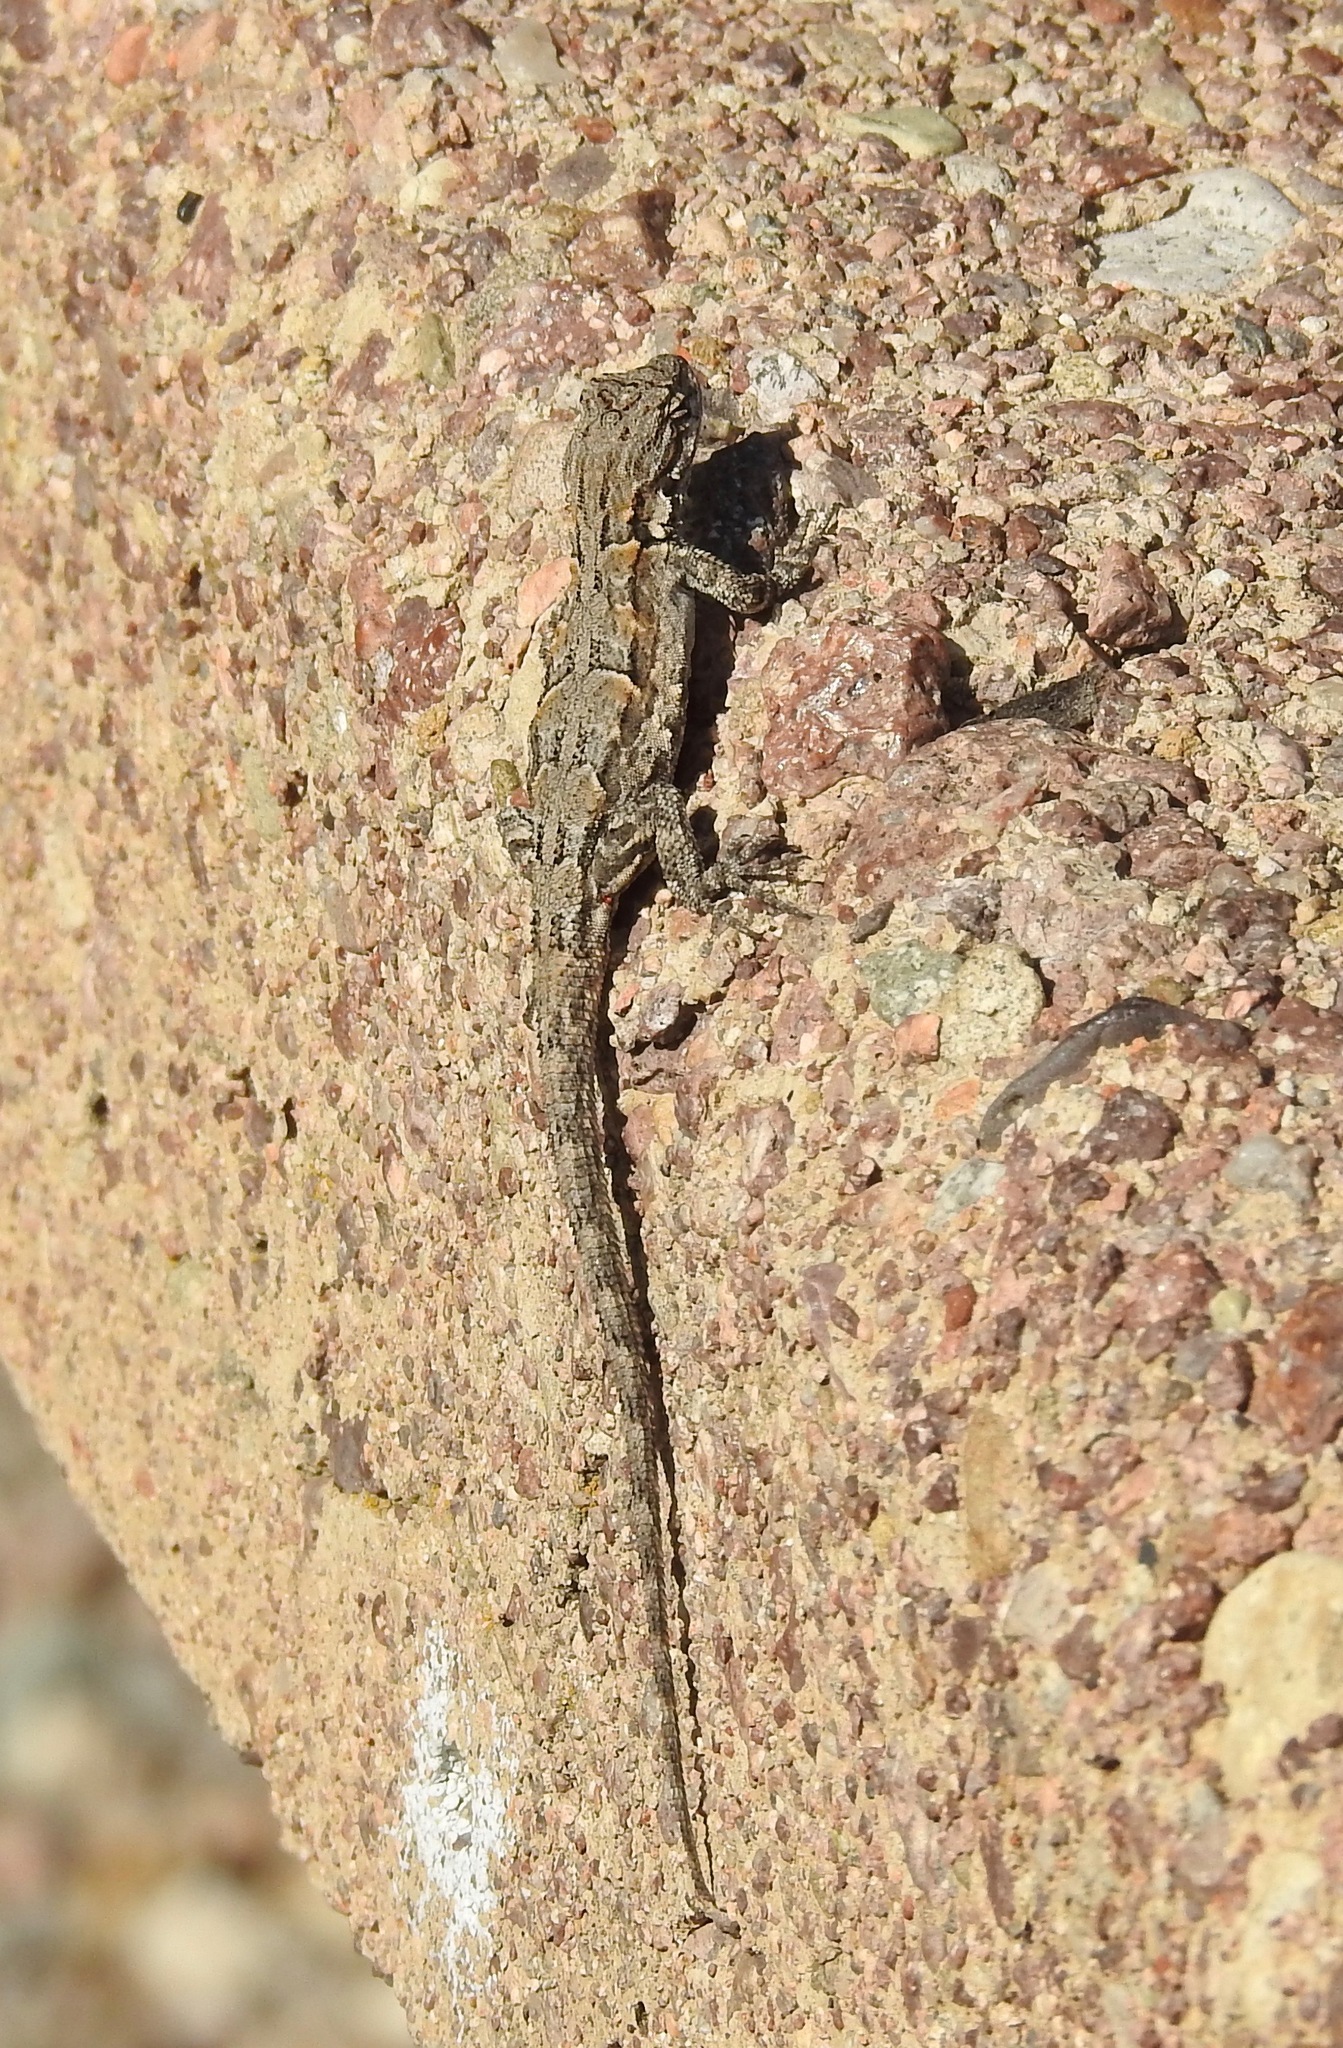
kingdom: Animalia
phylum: Chordata
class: Squamata
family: Phrynosomatidae
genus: Urosaurus
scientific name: Urosaurus ornatus
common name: Ornate tree lizard
